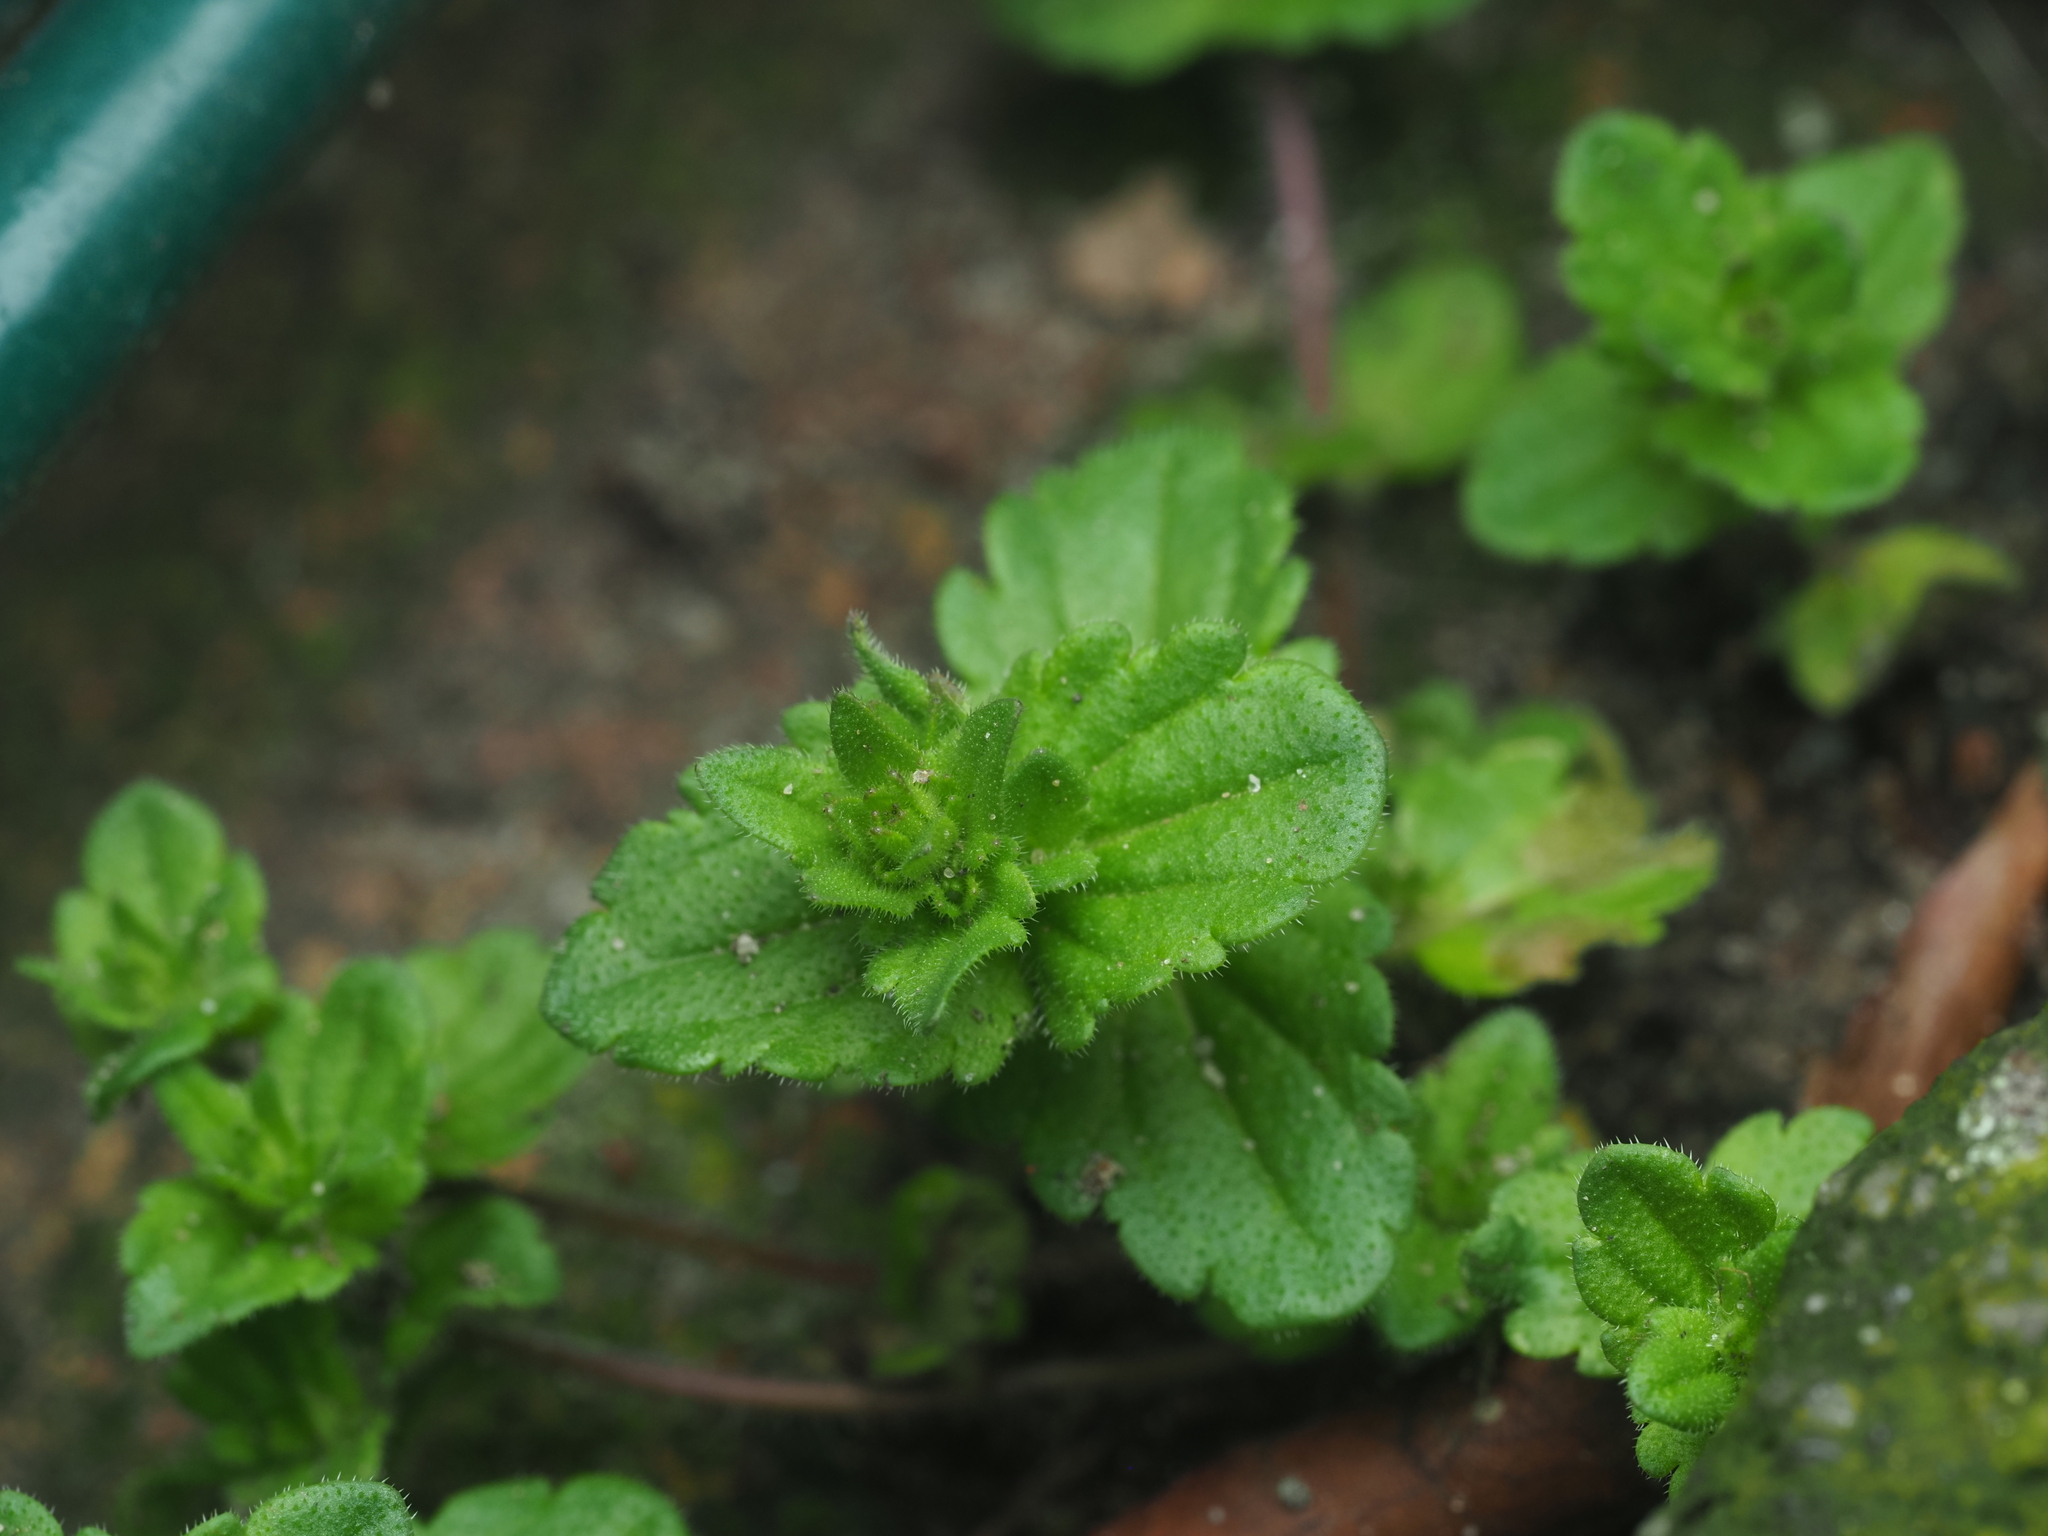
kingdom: Plantae
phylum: Tracheophyta
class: Magnoliopsida
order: Lamiales
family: Plantaginaceae
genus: Veronica
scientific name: Veronica arvensis
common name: Corn speedwell
